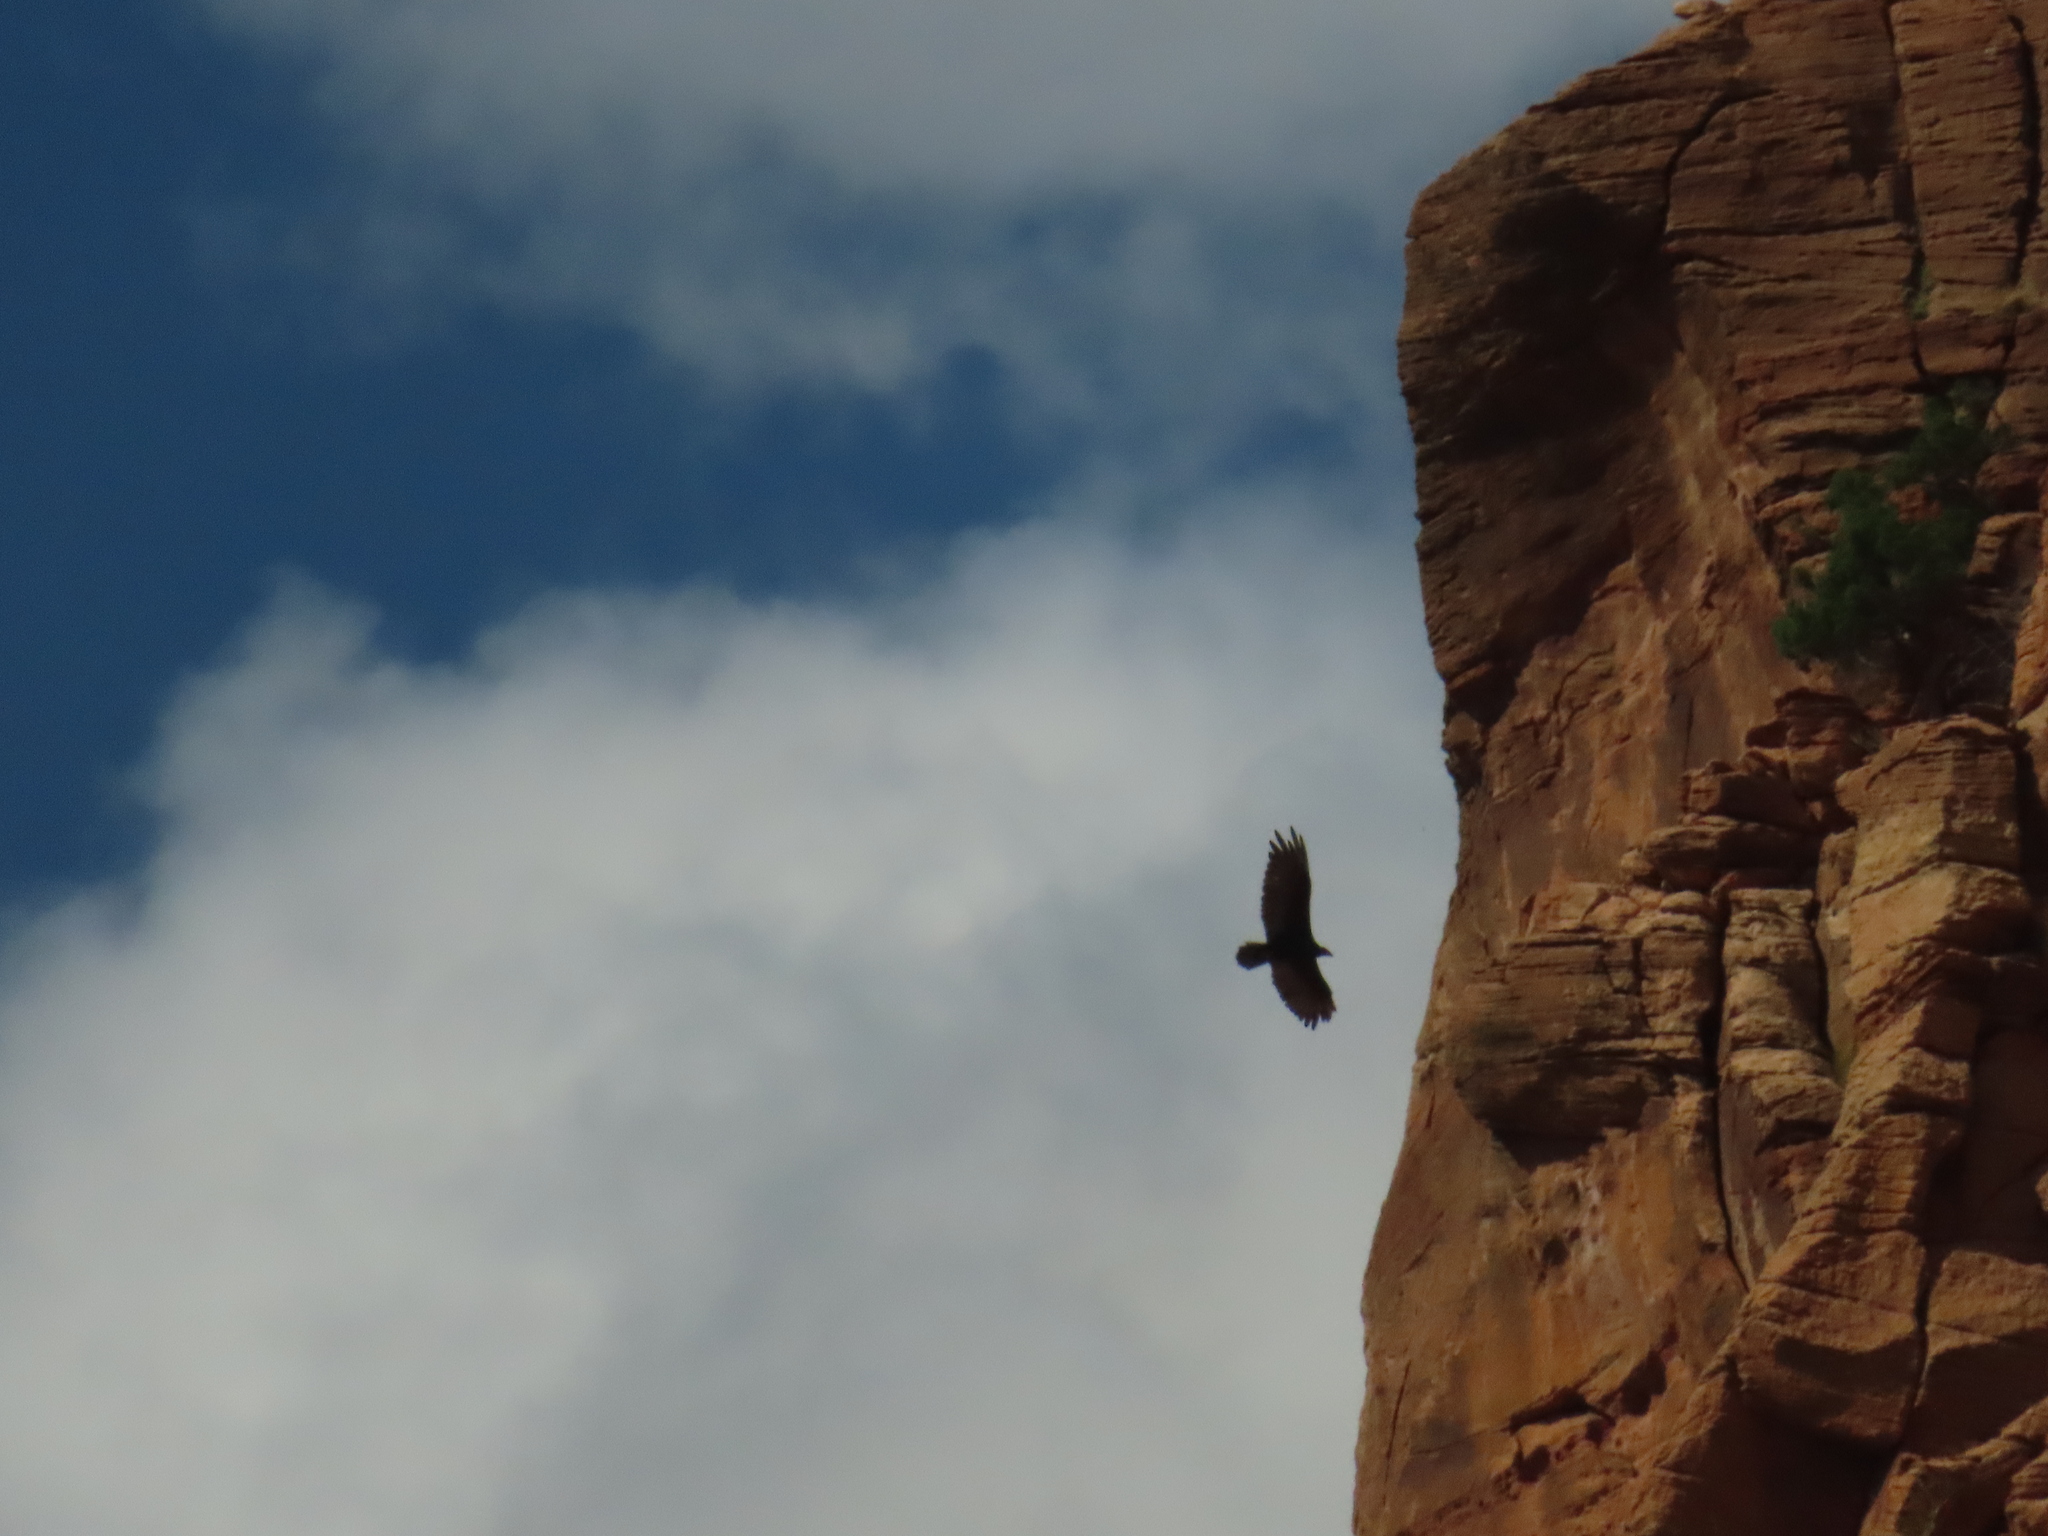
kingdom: Animalia
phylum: Chordata
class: Aves
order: Accipitriformes
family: Cathartidae
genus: Cathartes
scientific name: Cathartes aura
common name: Turkey vulture
